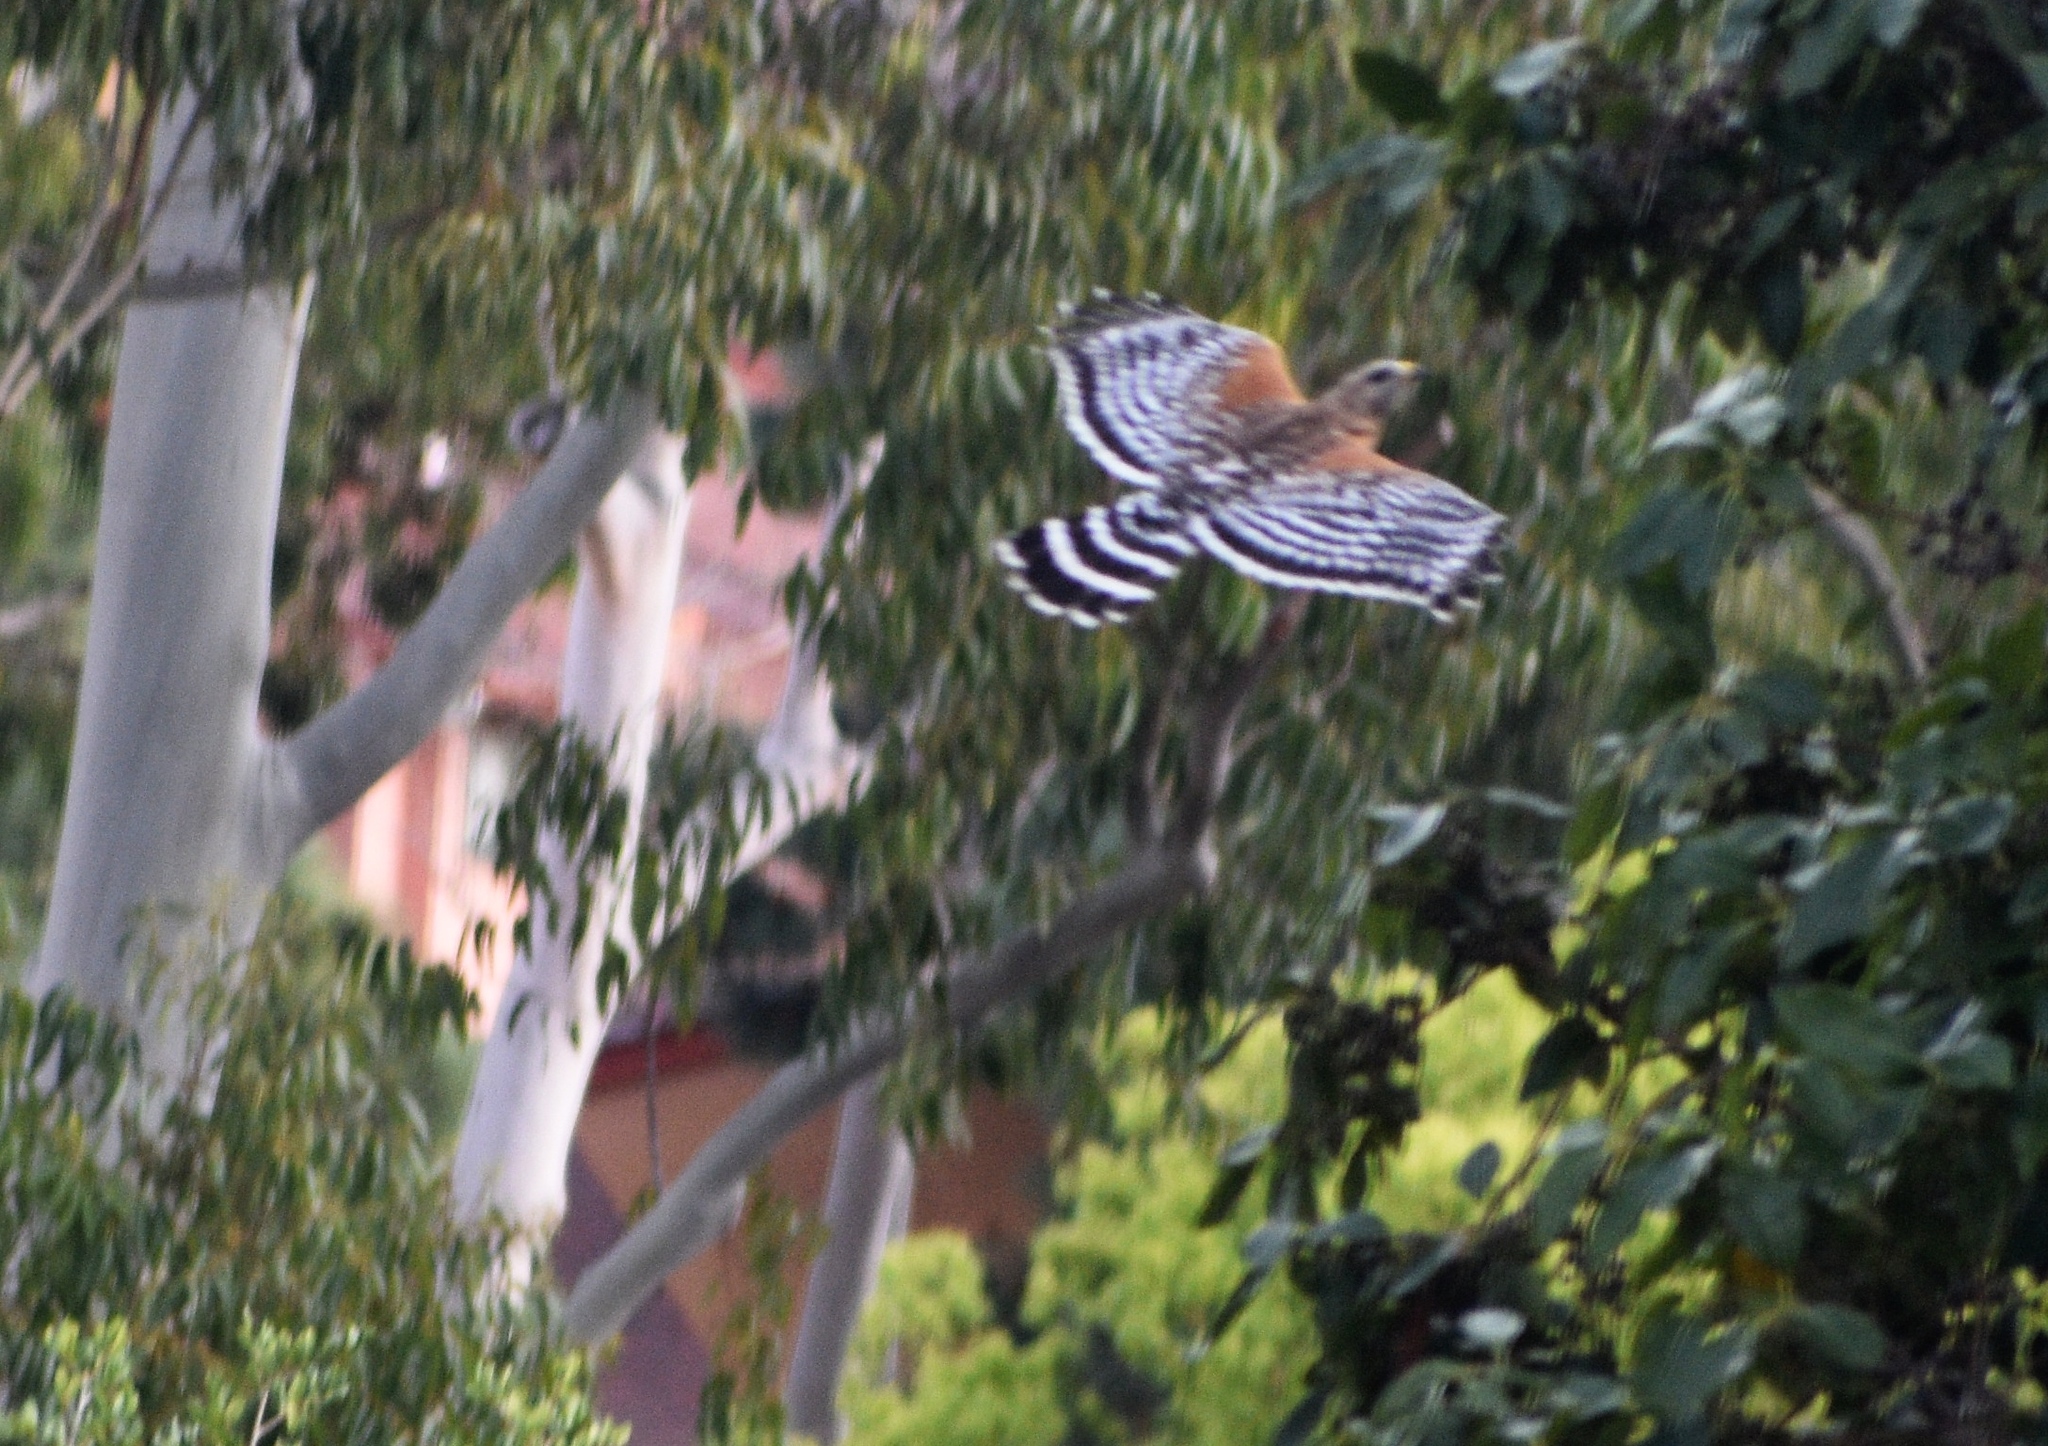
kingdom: Animalia
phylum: Chordata
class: Aves
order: Accipitriformes
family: Accipitridae
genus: Buteo
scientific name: Buteo lineatus
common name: Red-shouldered hawk
